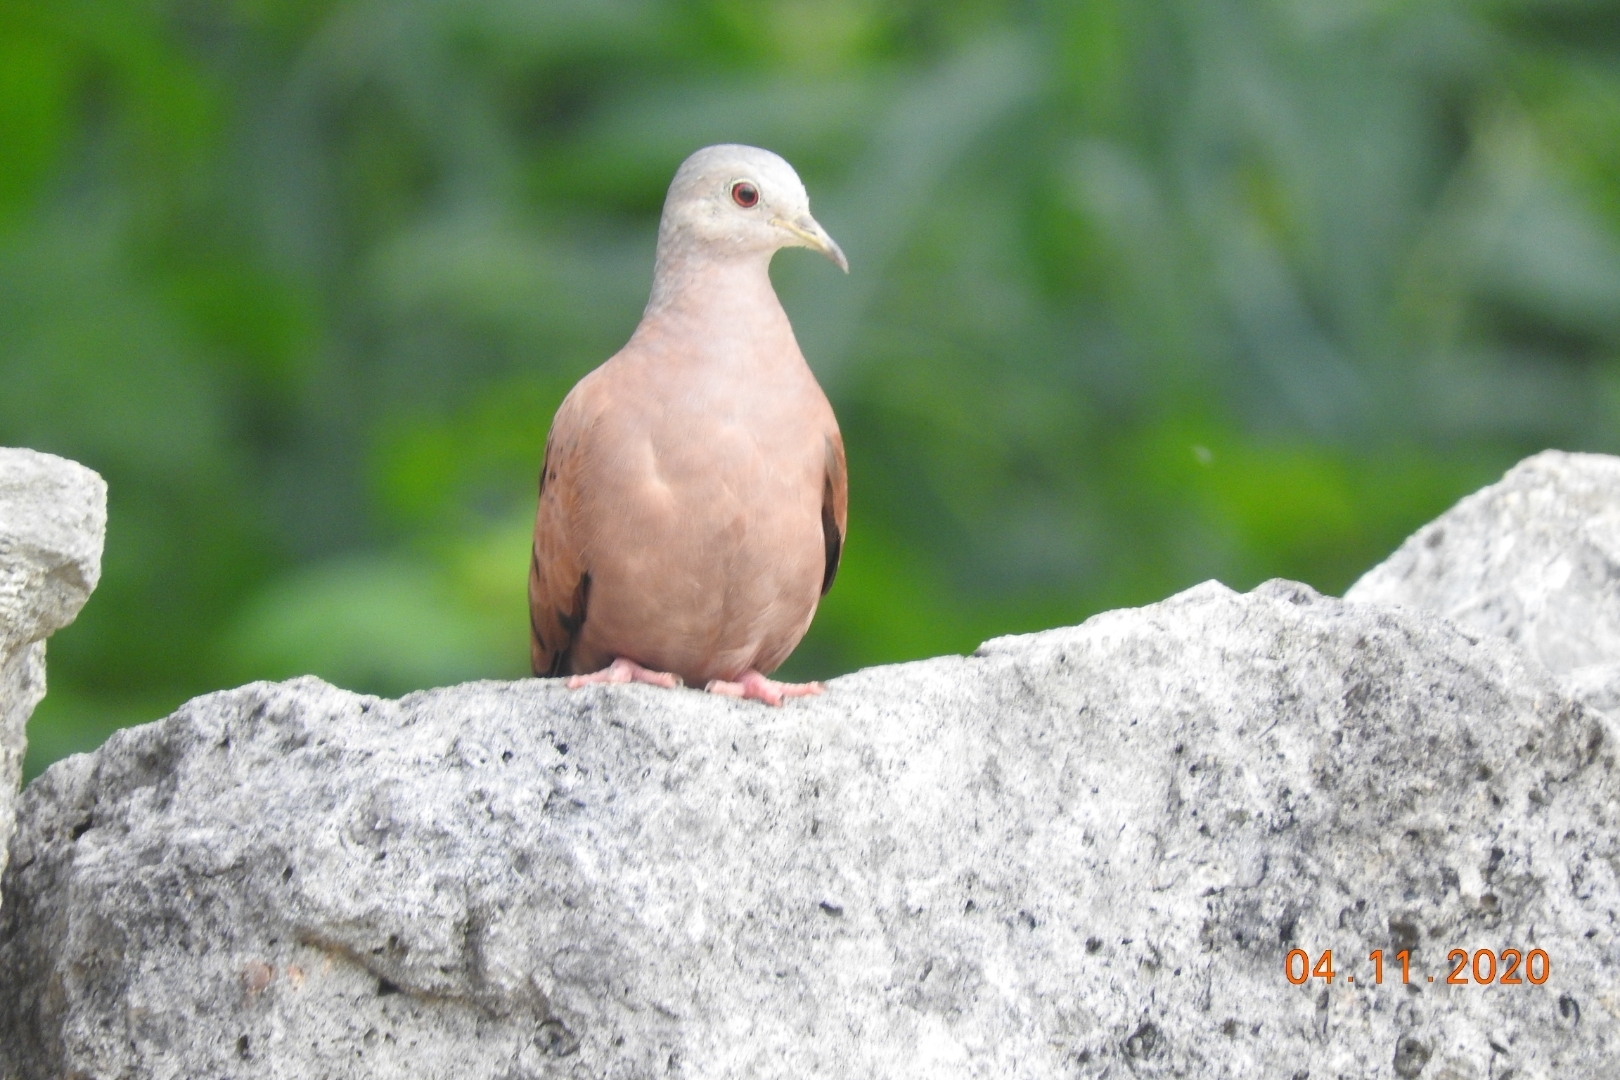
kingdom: Animalia
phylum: Chordata
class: Aves
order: Columbiformes
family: Columbidae
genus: Columbina
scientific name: Columbina talpacoti
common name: Ruddy ground dove
